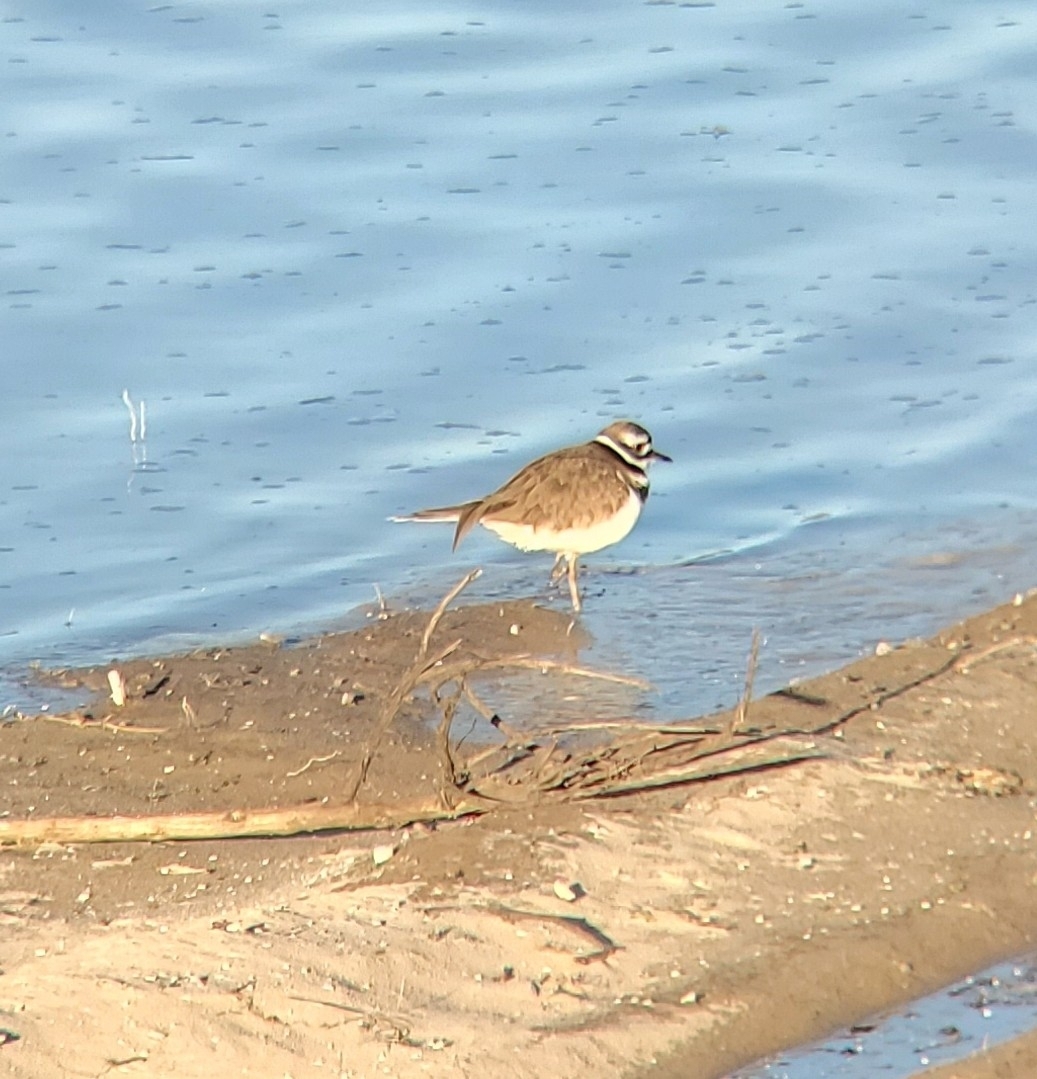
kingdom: Animalia
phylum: Chordata
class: Aves
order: Charadriiformes
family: Charadriidae
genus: Charadrius
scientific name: Charadrius vociferus
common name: Killdeer
